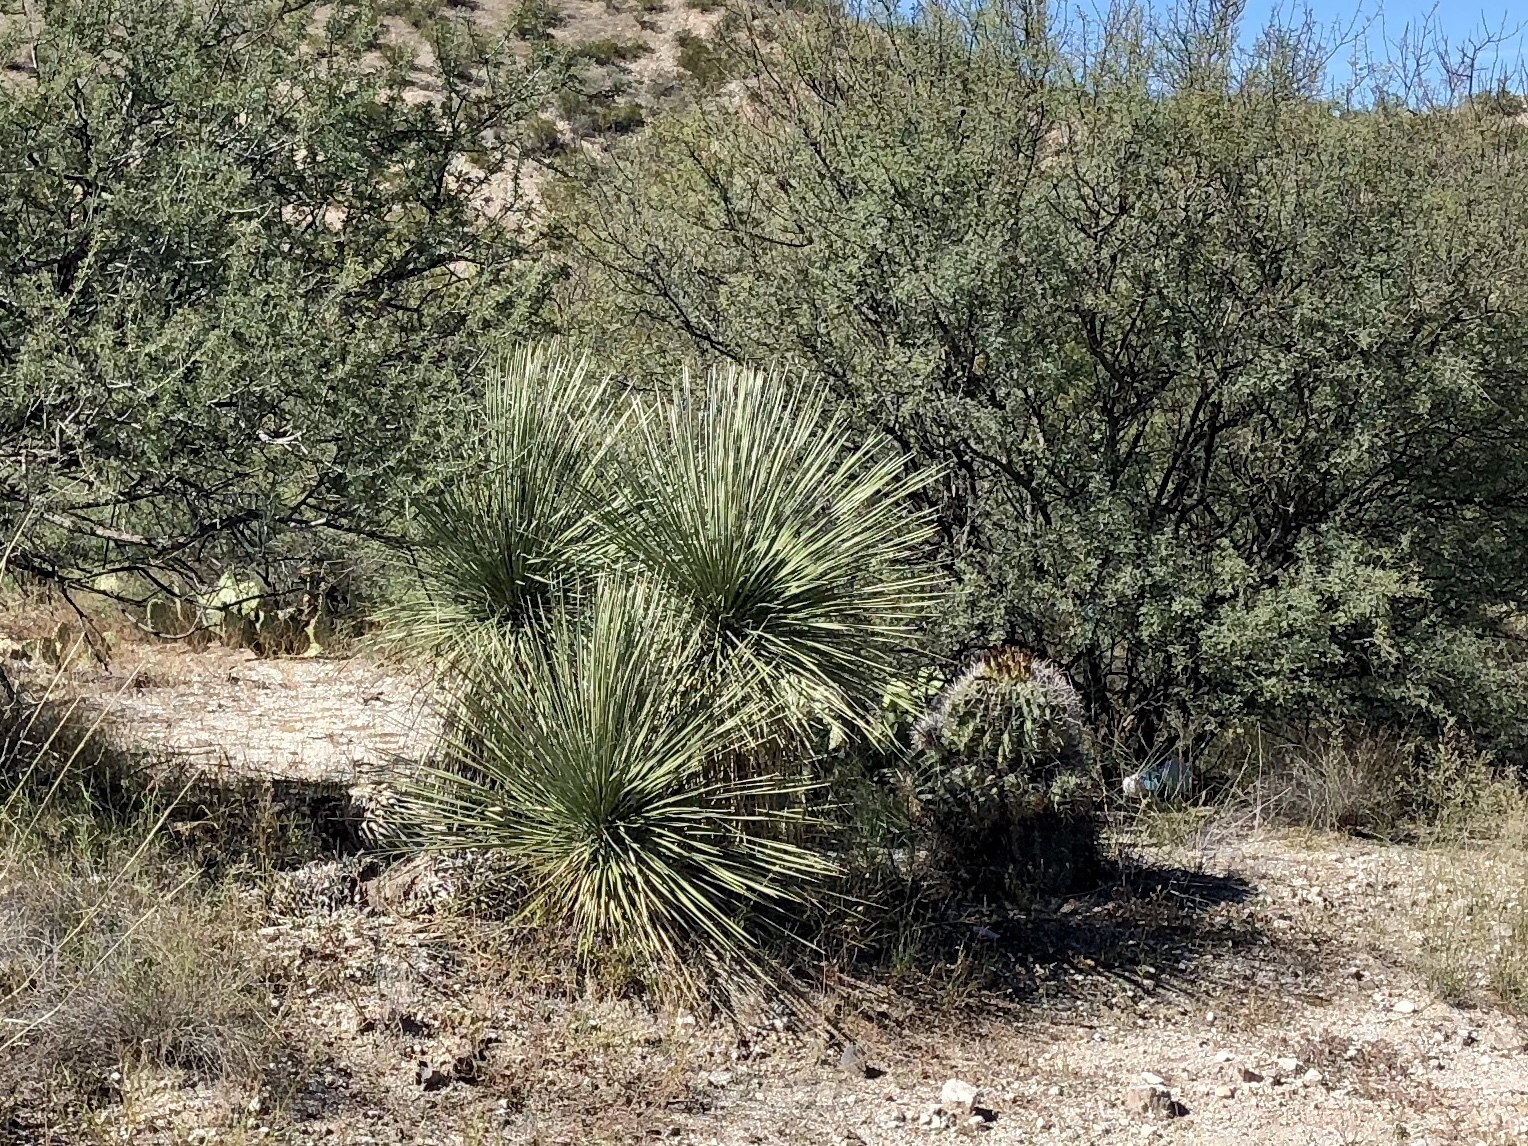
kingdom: Plantae
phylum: Tracheophyta
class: Liliopsida
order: Asparagales
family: Asparagaceae
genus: Yucca
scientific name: Yucca elata
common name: Palmella
